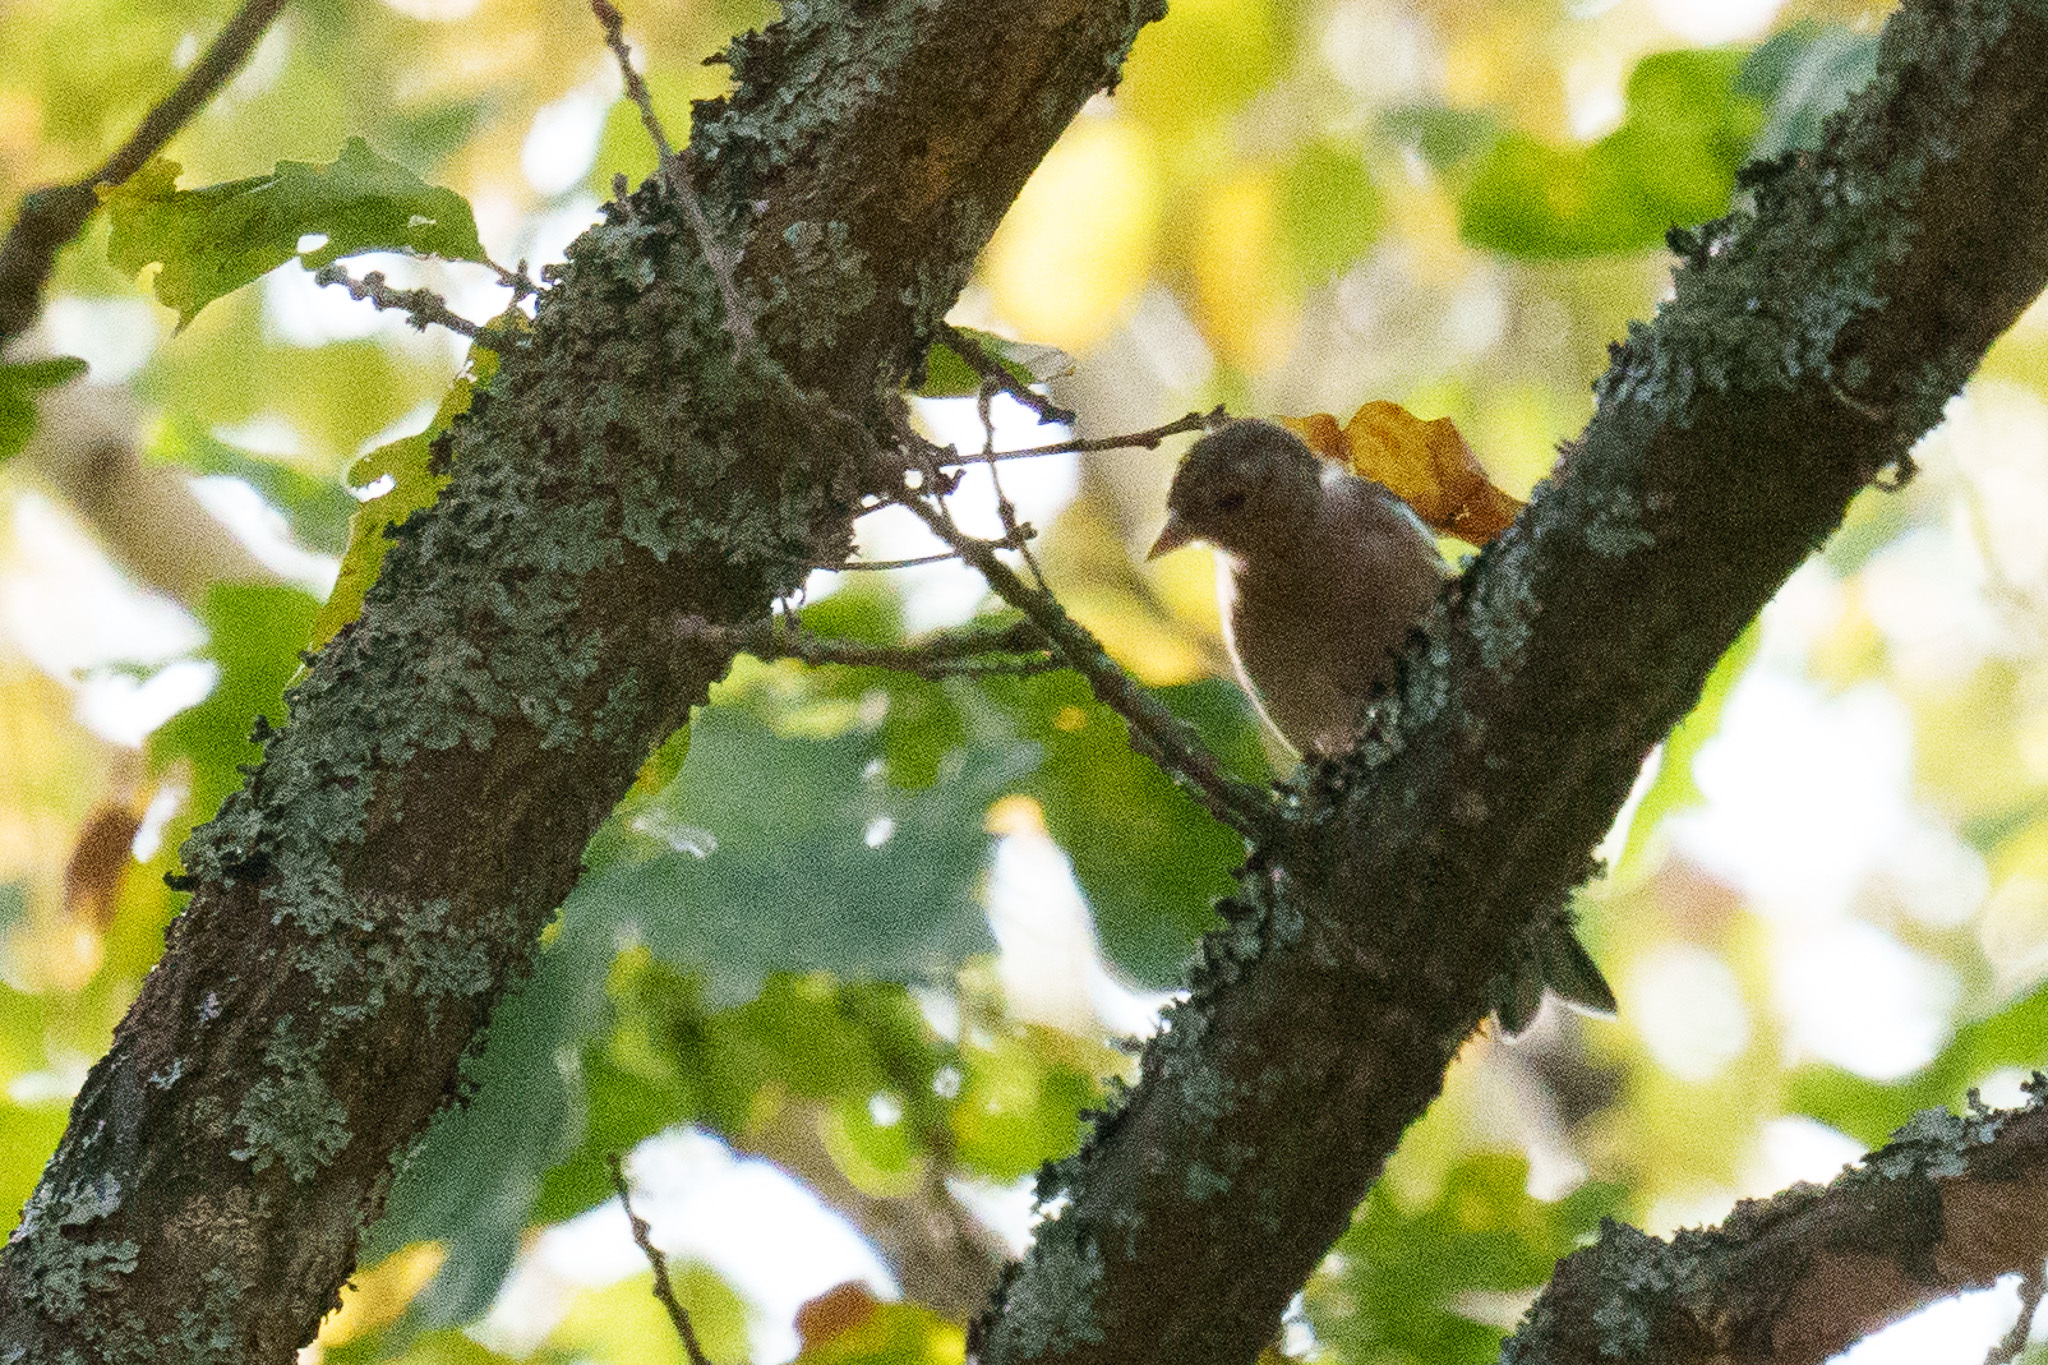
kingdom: Animalia
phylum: Chordata
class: Aves
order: Passeriformes
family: Fringillidae
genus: Fringilla
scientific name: Fringilla coelebs
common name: Common chaffinch
